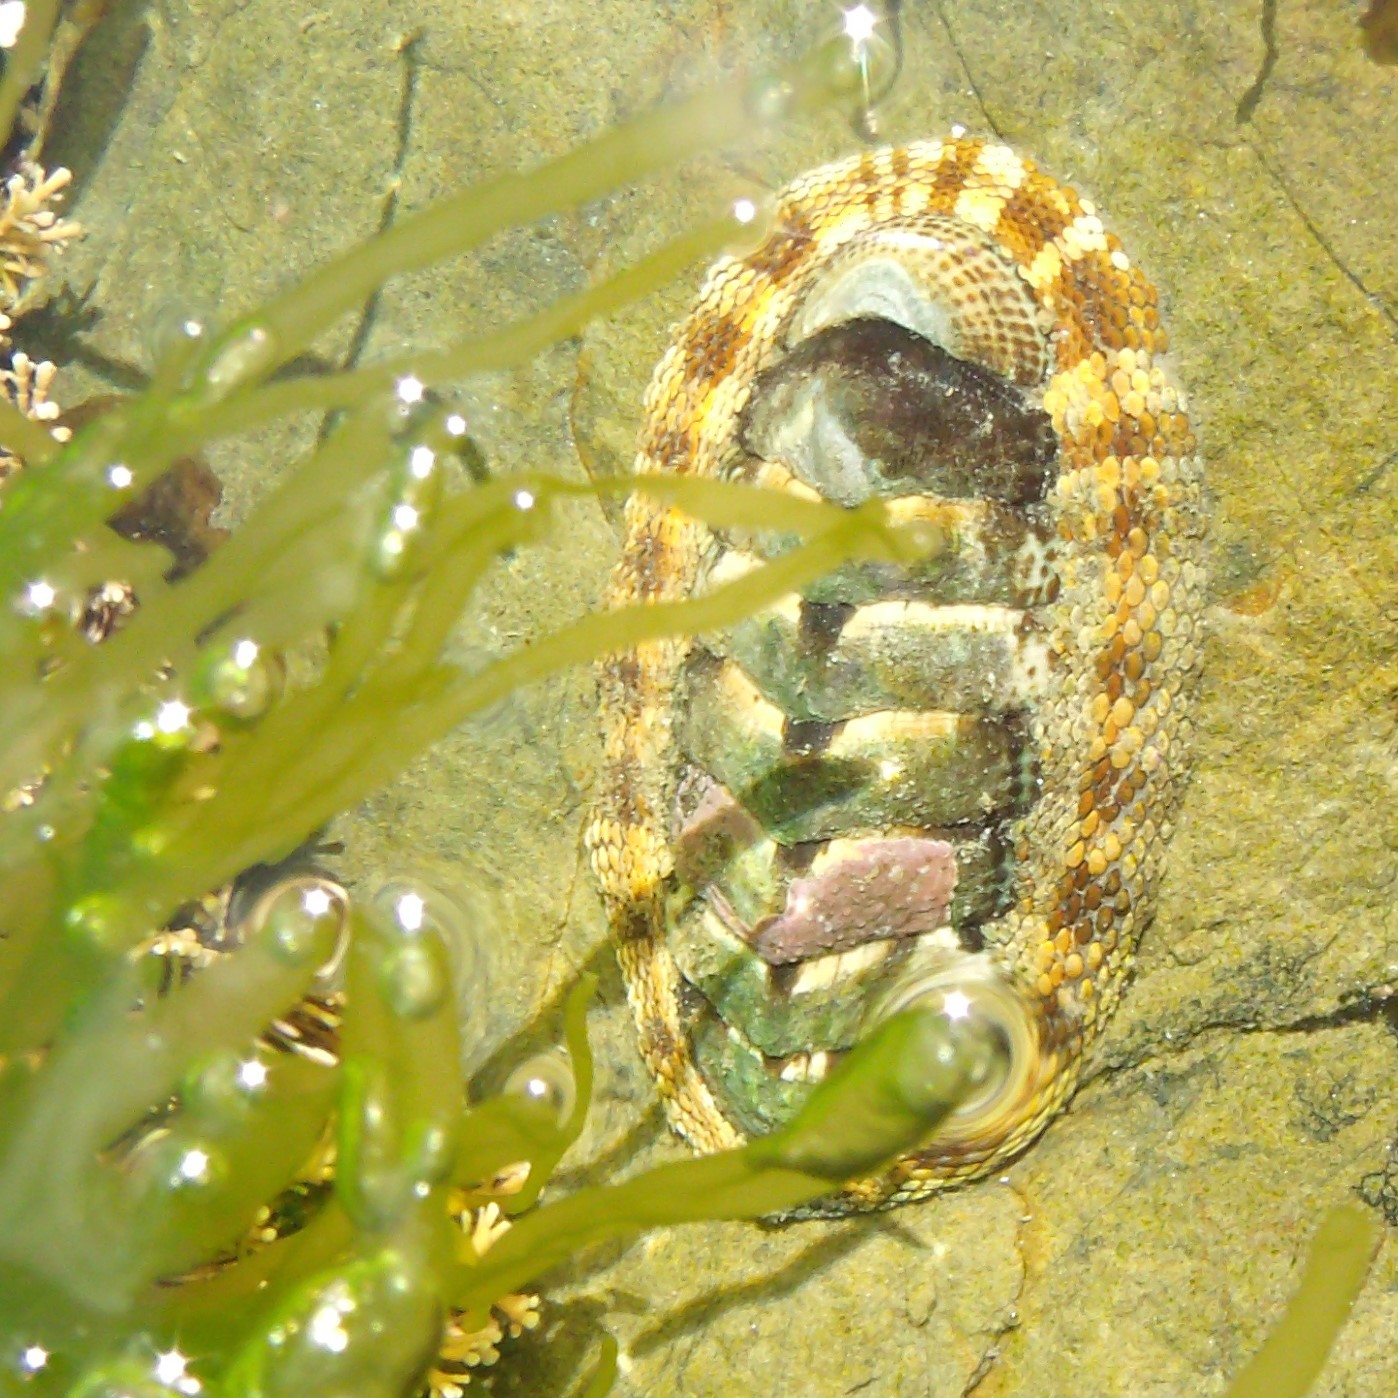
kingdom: Animalia
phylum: Mollusca
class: Polyplacophora
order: Chitonida
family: Chitonidae
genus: Sypharochiton
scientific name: Sypharochiton pelliserpentis
